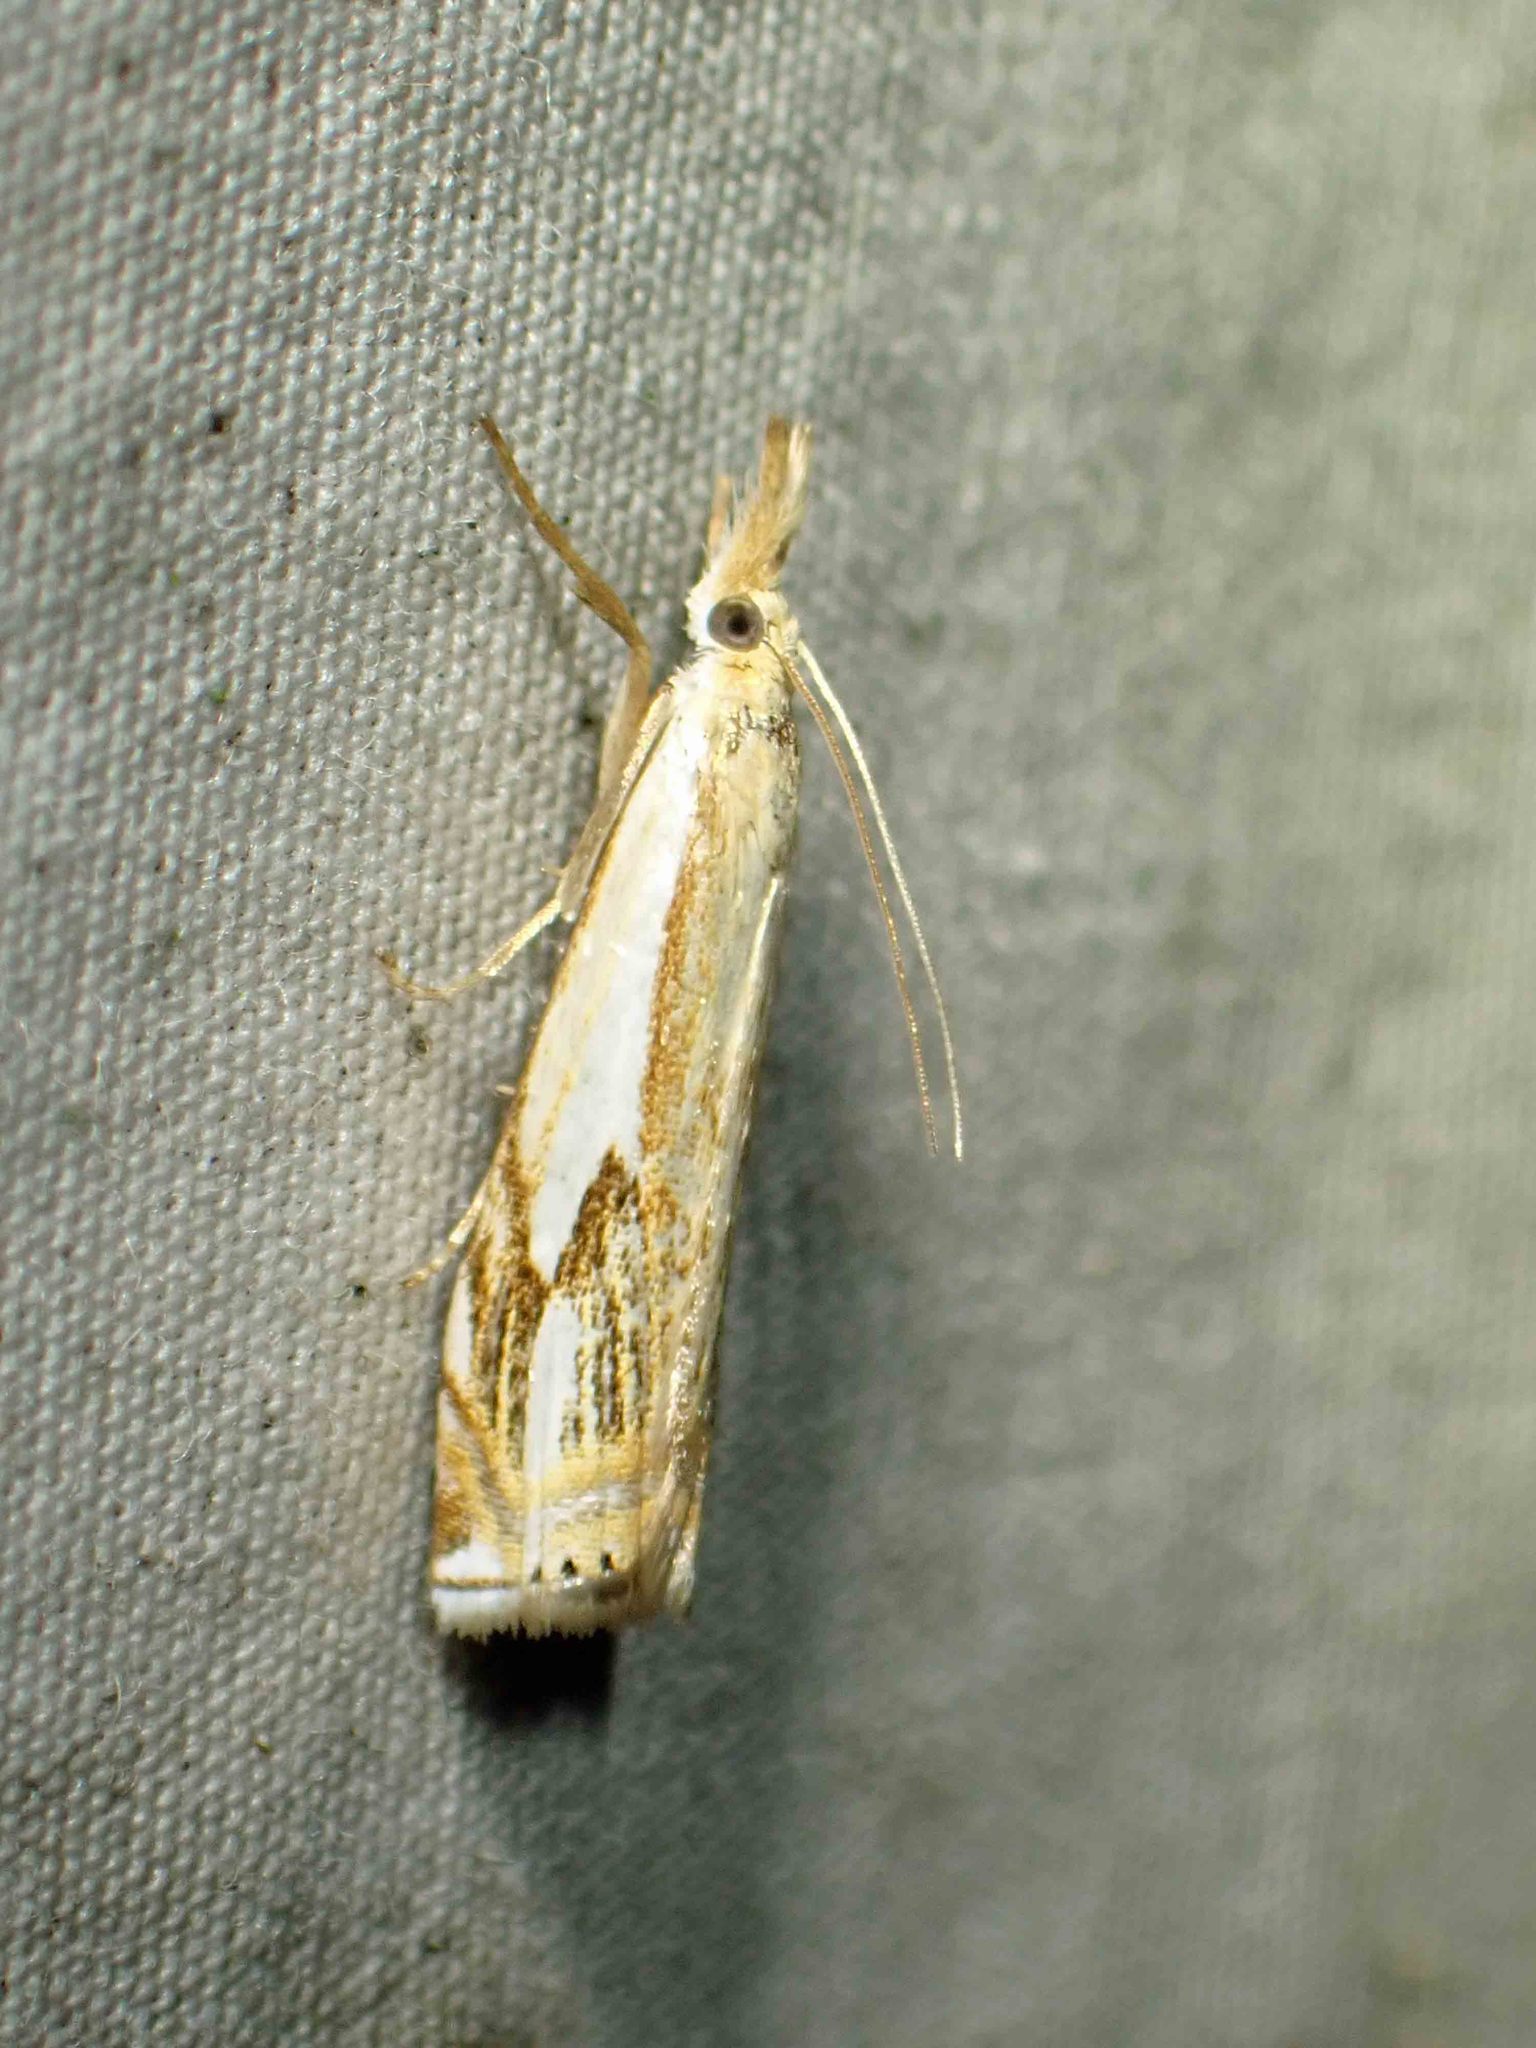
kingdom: Animalia
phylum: Arthropoda
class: Insecta
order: Lepidoptera
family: Crambidae
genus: Crambus
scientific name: Crambus agitatellus
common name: Double-banded grass-veneer
